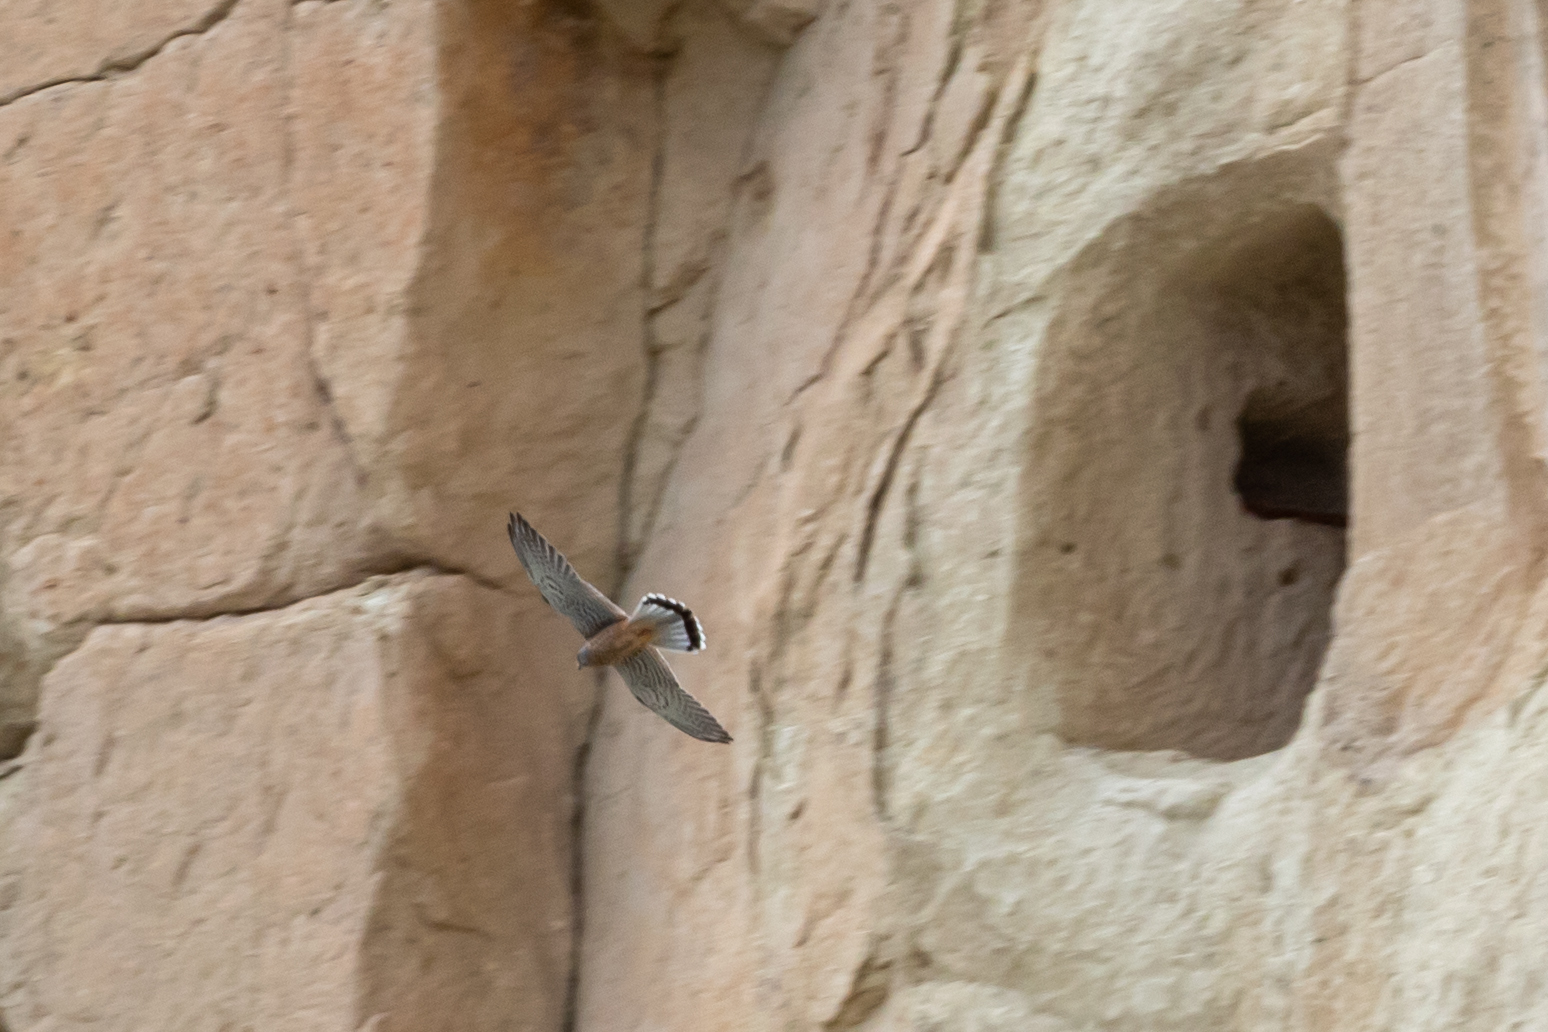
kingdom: Animalia
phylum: Chordata
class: Aves
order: Falconiformes
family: Falconidae
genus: Falco
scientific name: Falco tinnunculus
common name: Common kestrel
